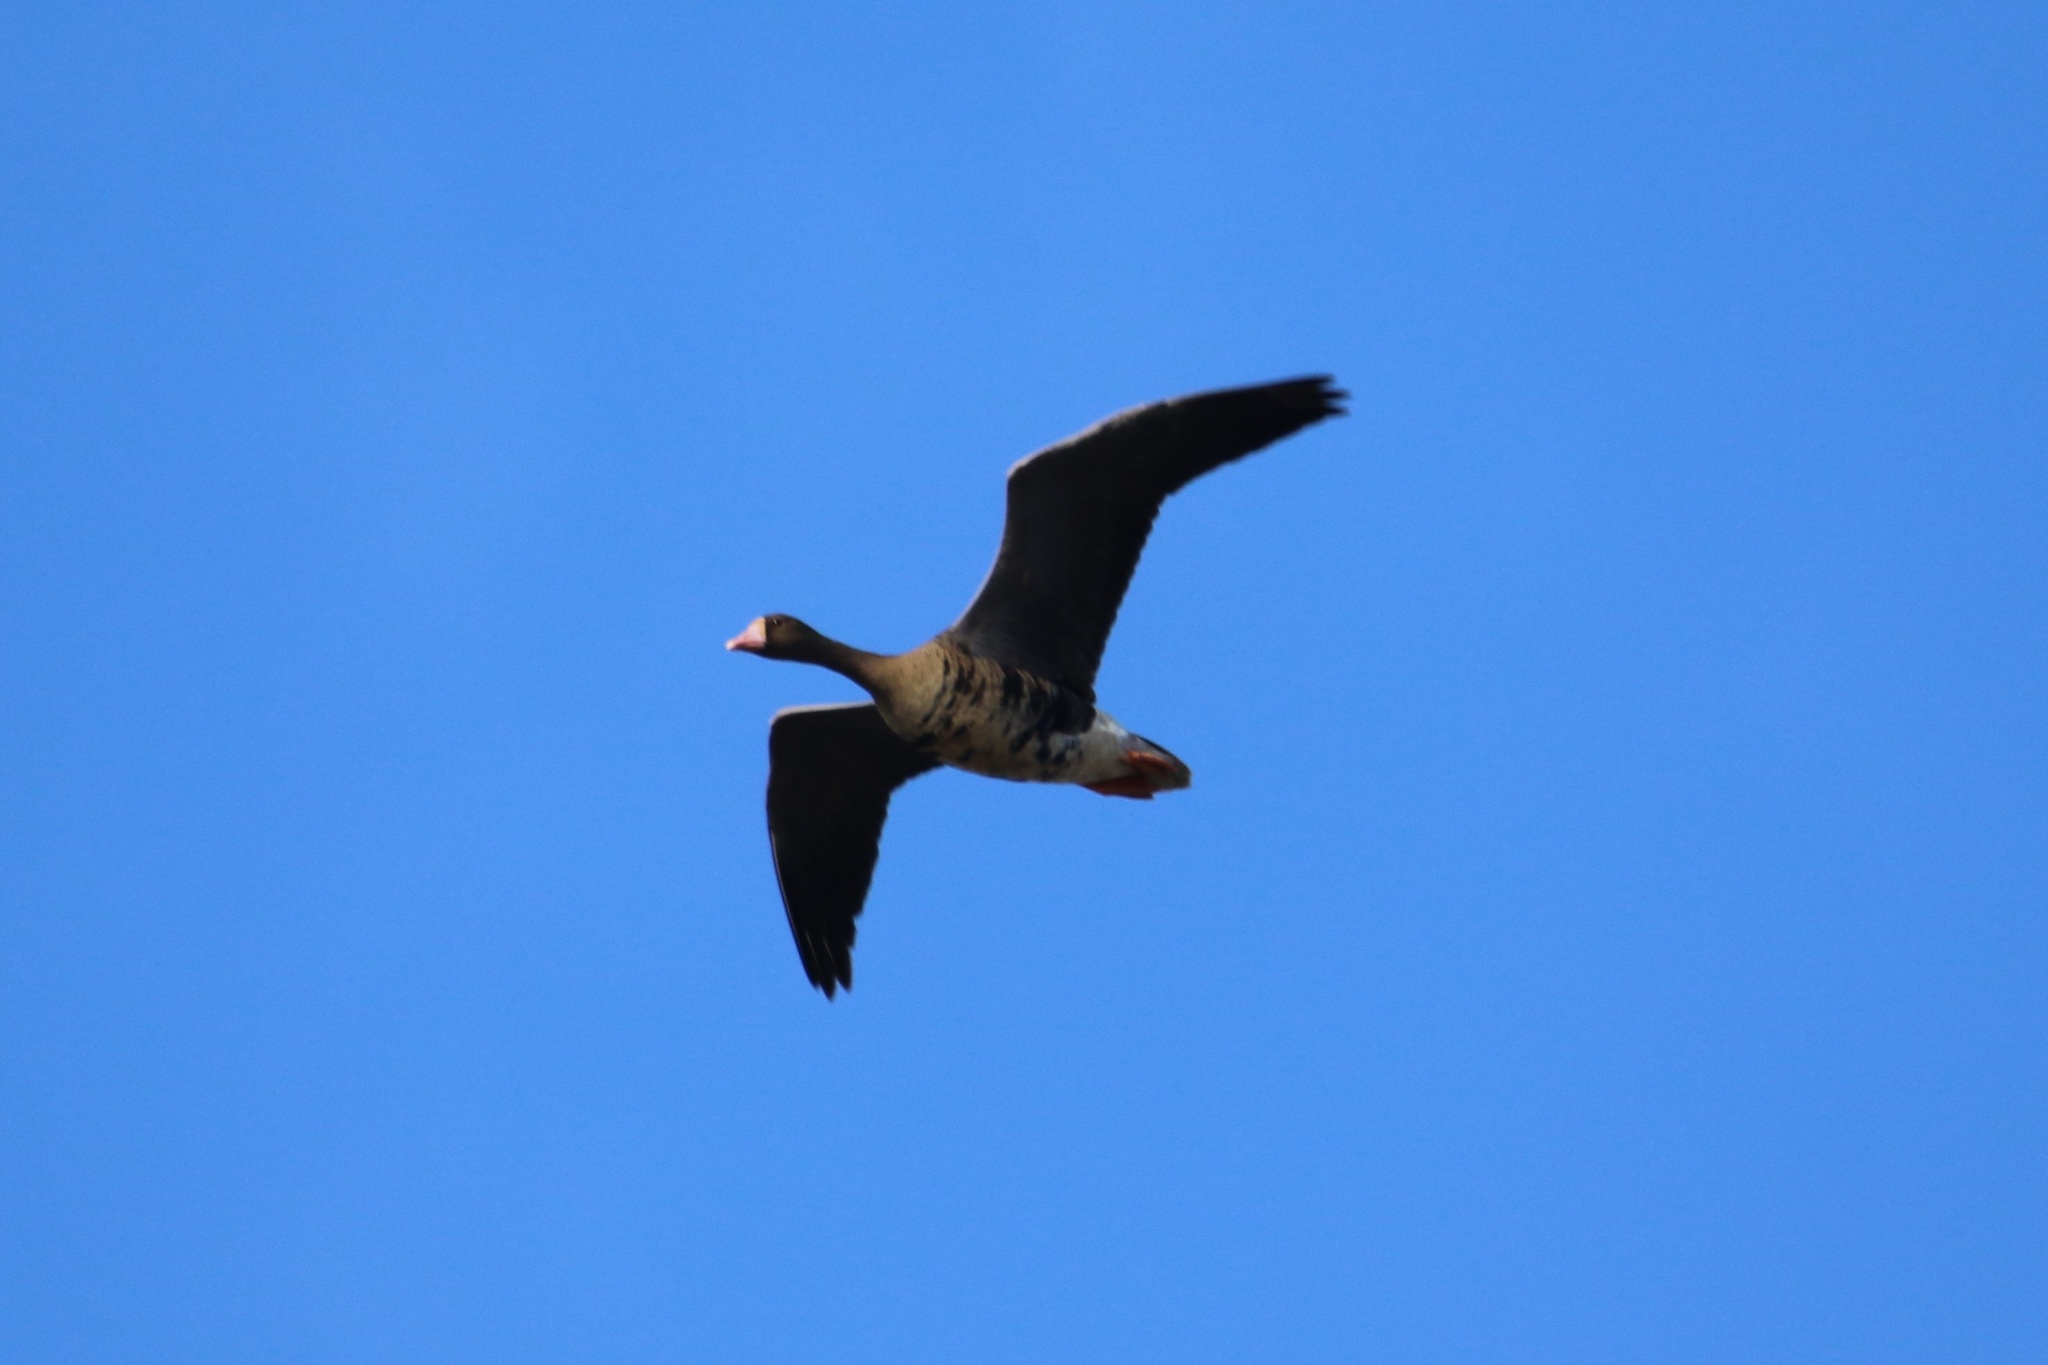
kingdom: Animalia
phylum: Chordata
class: Aves
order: Anseriformes
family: Anatidae
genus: Anser
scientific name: Anser albifrons
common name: Greater white-fronted goose
